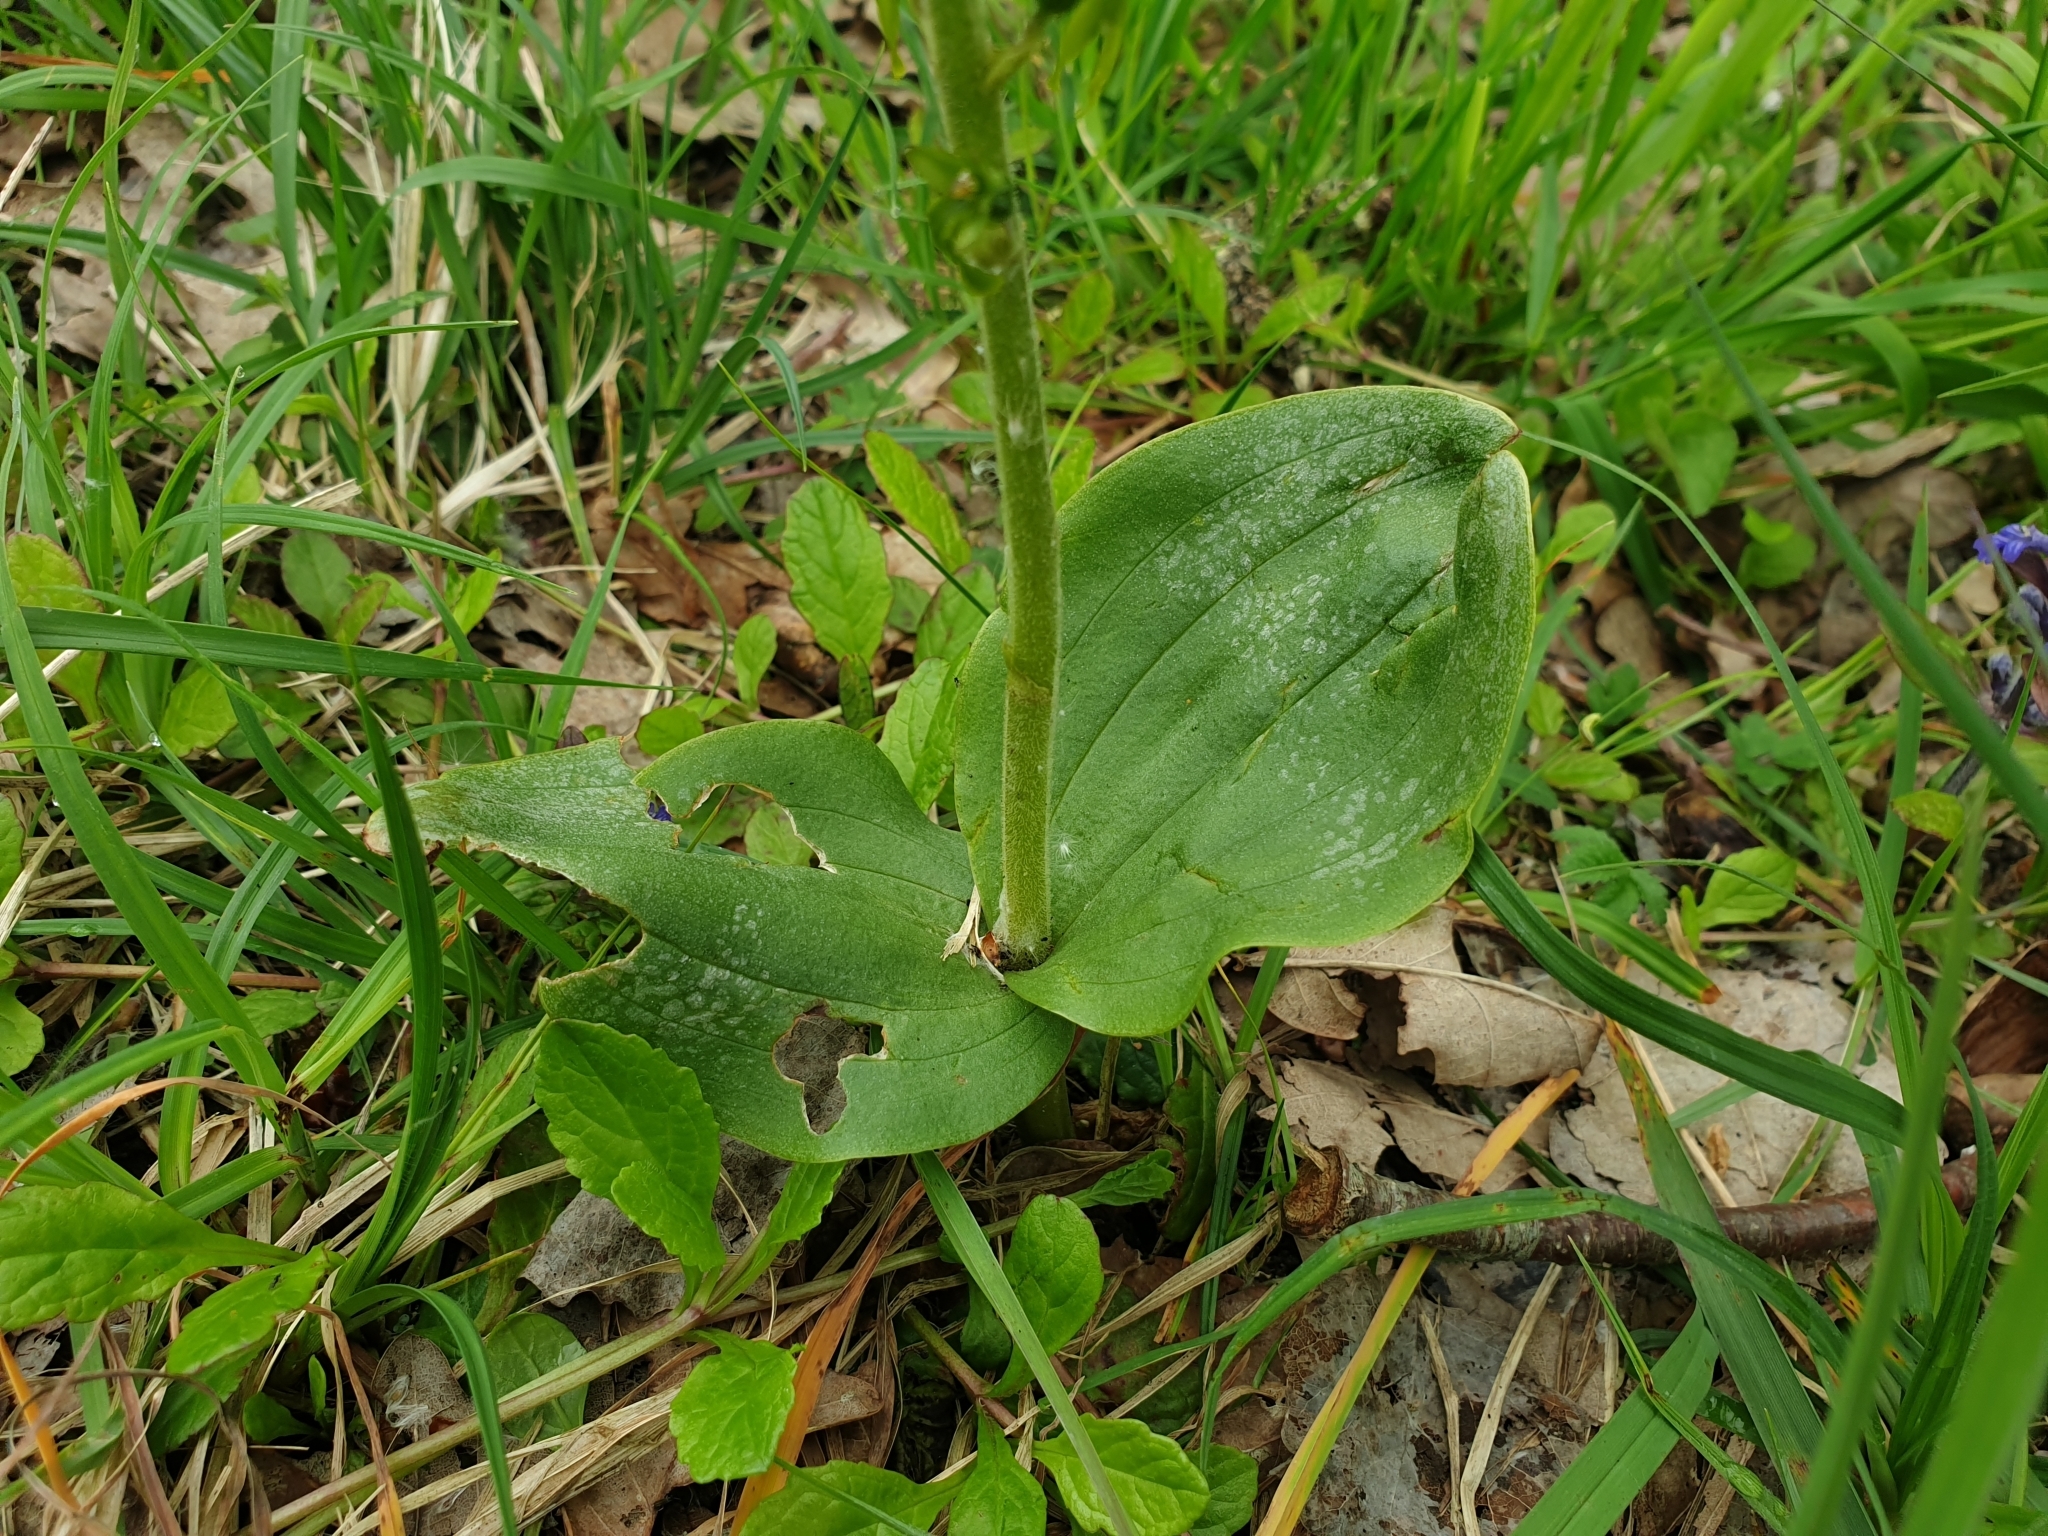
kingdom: Plantae
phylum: Tracheophyta
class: Liliopsida
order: Asparagales
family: Orchidaceae
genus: Neottia
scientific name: Neottia ovata
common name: Common twayblade
